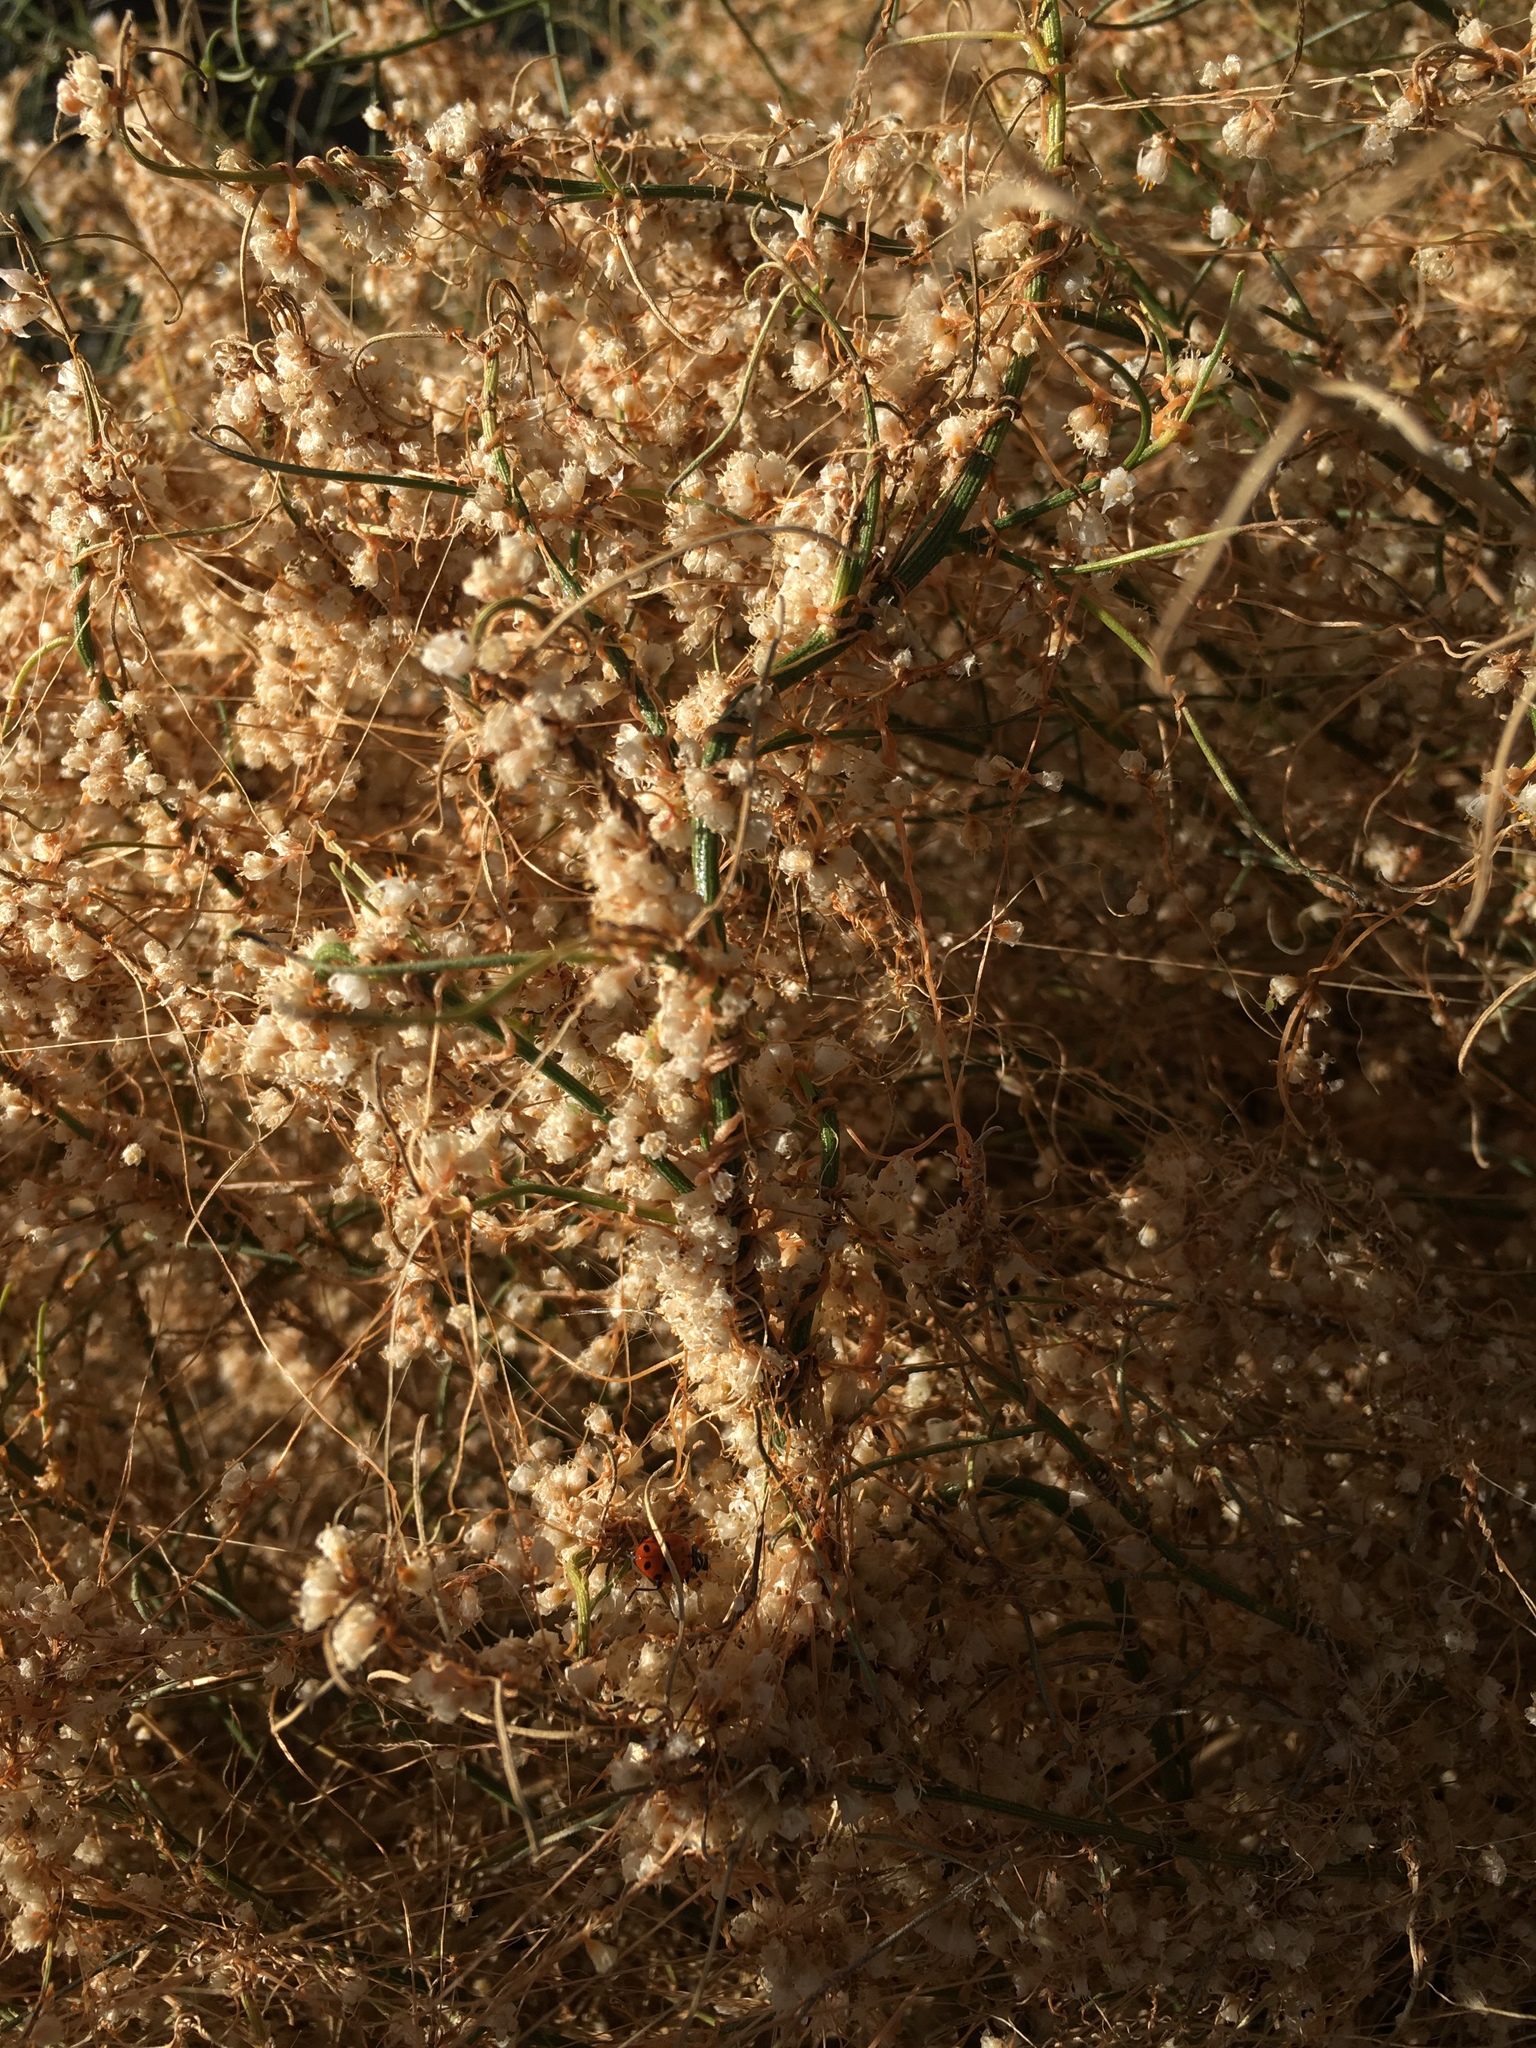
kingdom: Plantae
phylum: Tracheophyta
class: Magnoliopsida
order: Asterales
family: Asteraceae
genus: Ambrosia
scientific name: Ambrosia salsola
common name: Burrobrush
